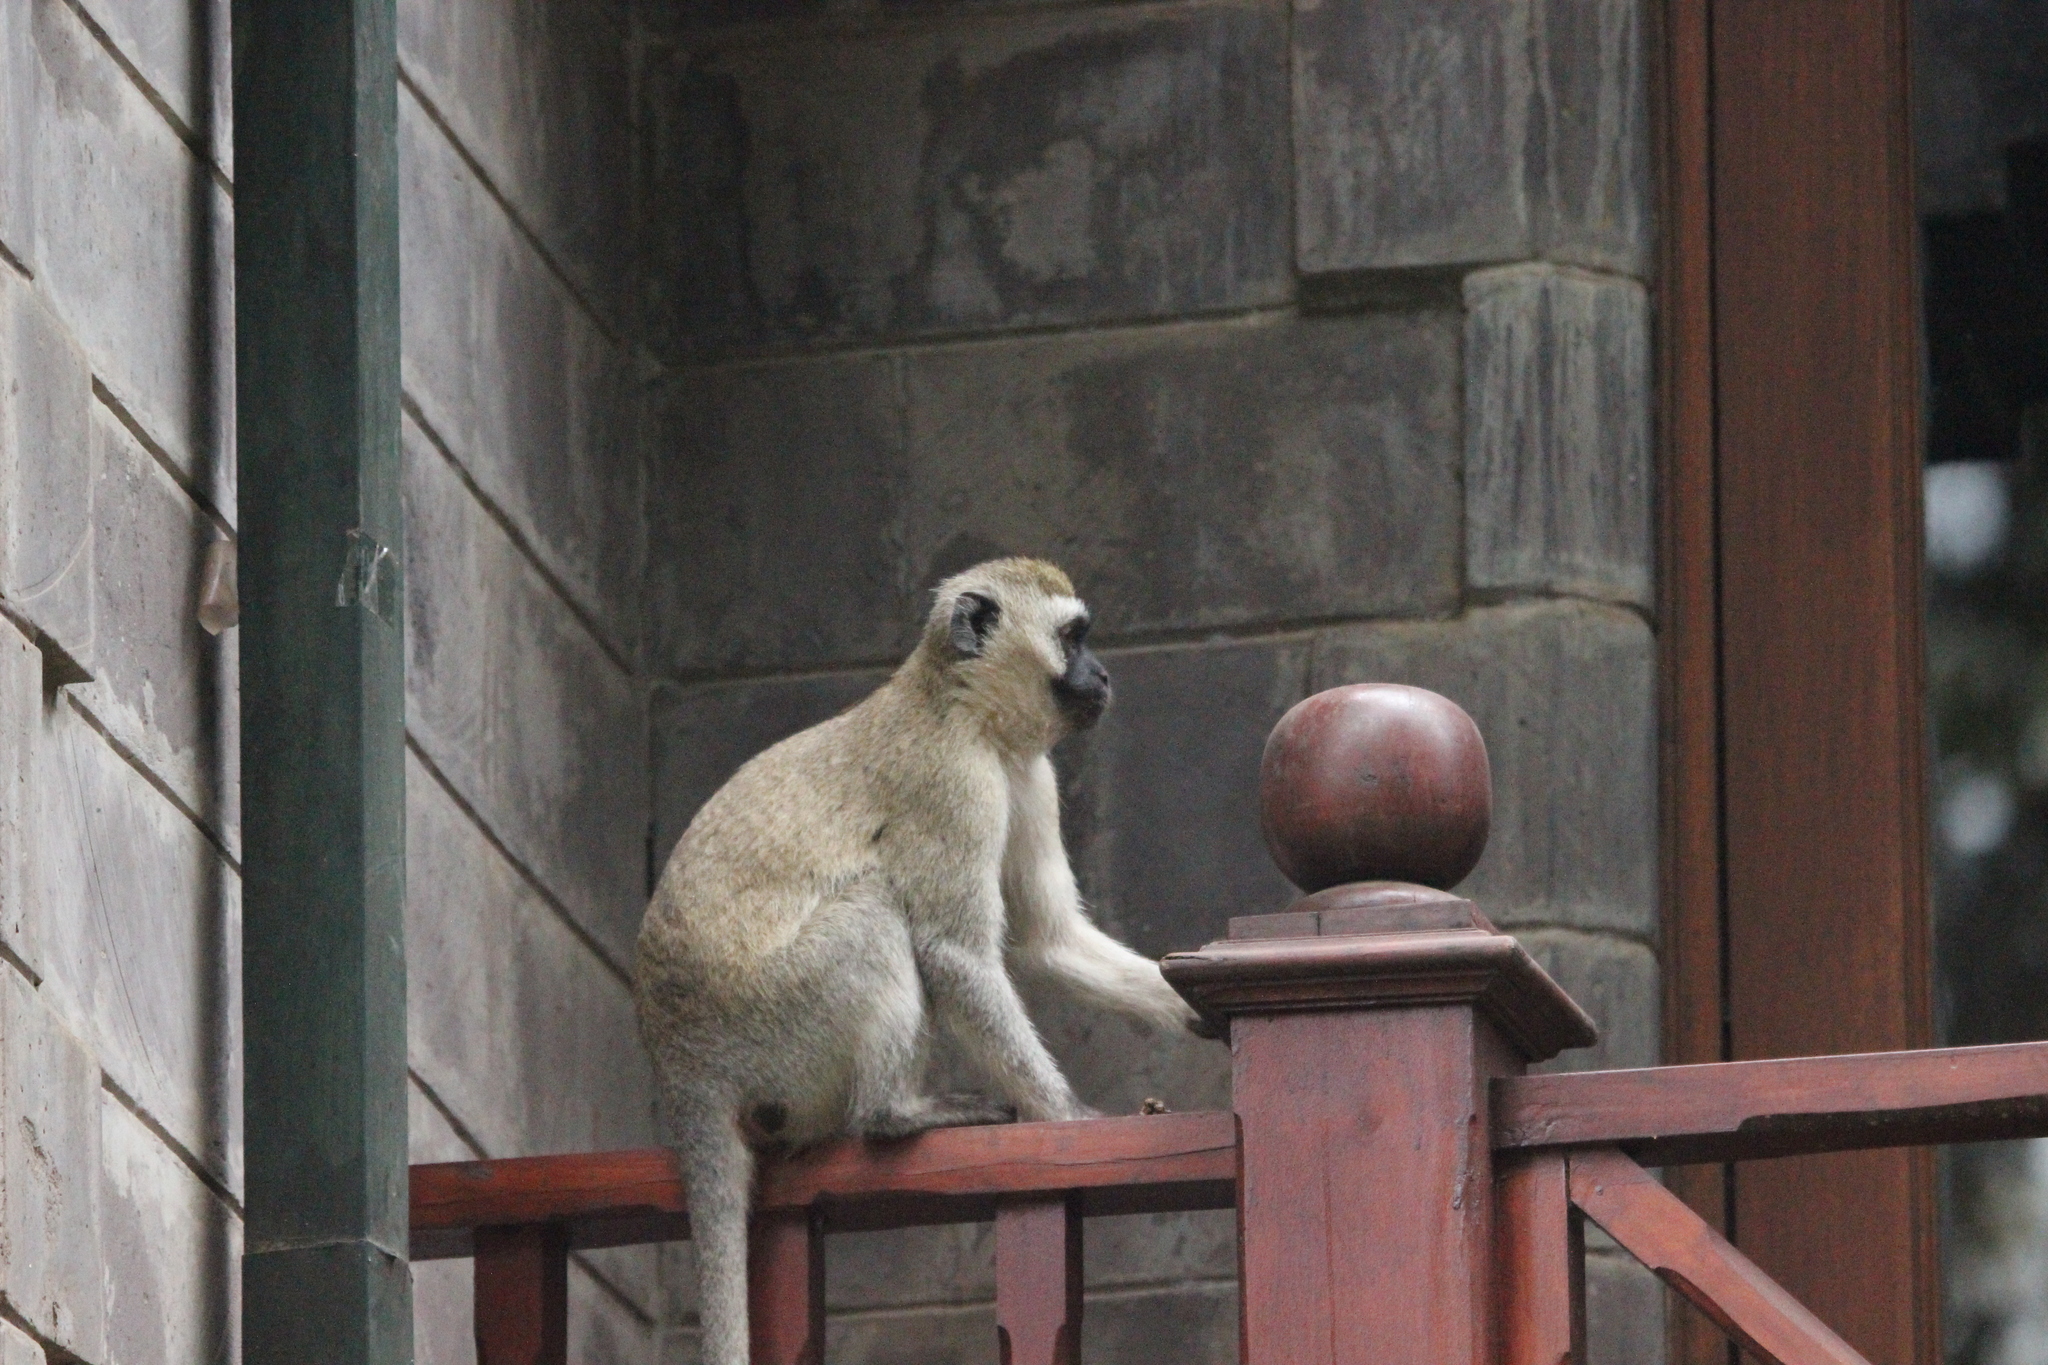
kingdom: Animalia
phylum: Chordata
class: Mammalia
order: Primates
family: Cercopithecidae
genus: Chlorocebus
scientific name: Chlorocebus pygerythrus
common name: Vervet monkey
